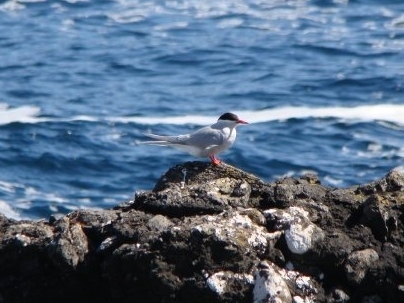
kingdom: Animalia
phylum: Chordata
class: Aves
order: Charadriiformes
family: Laridae
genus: Sterna
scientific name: Sterna vittata
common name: Antarctic tern
